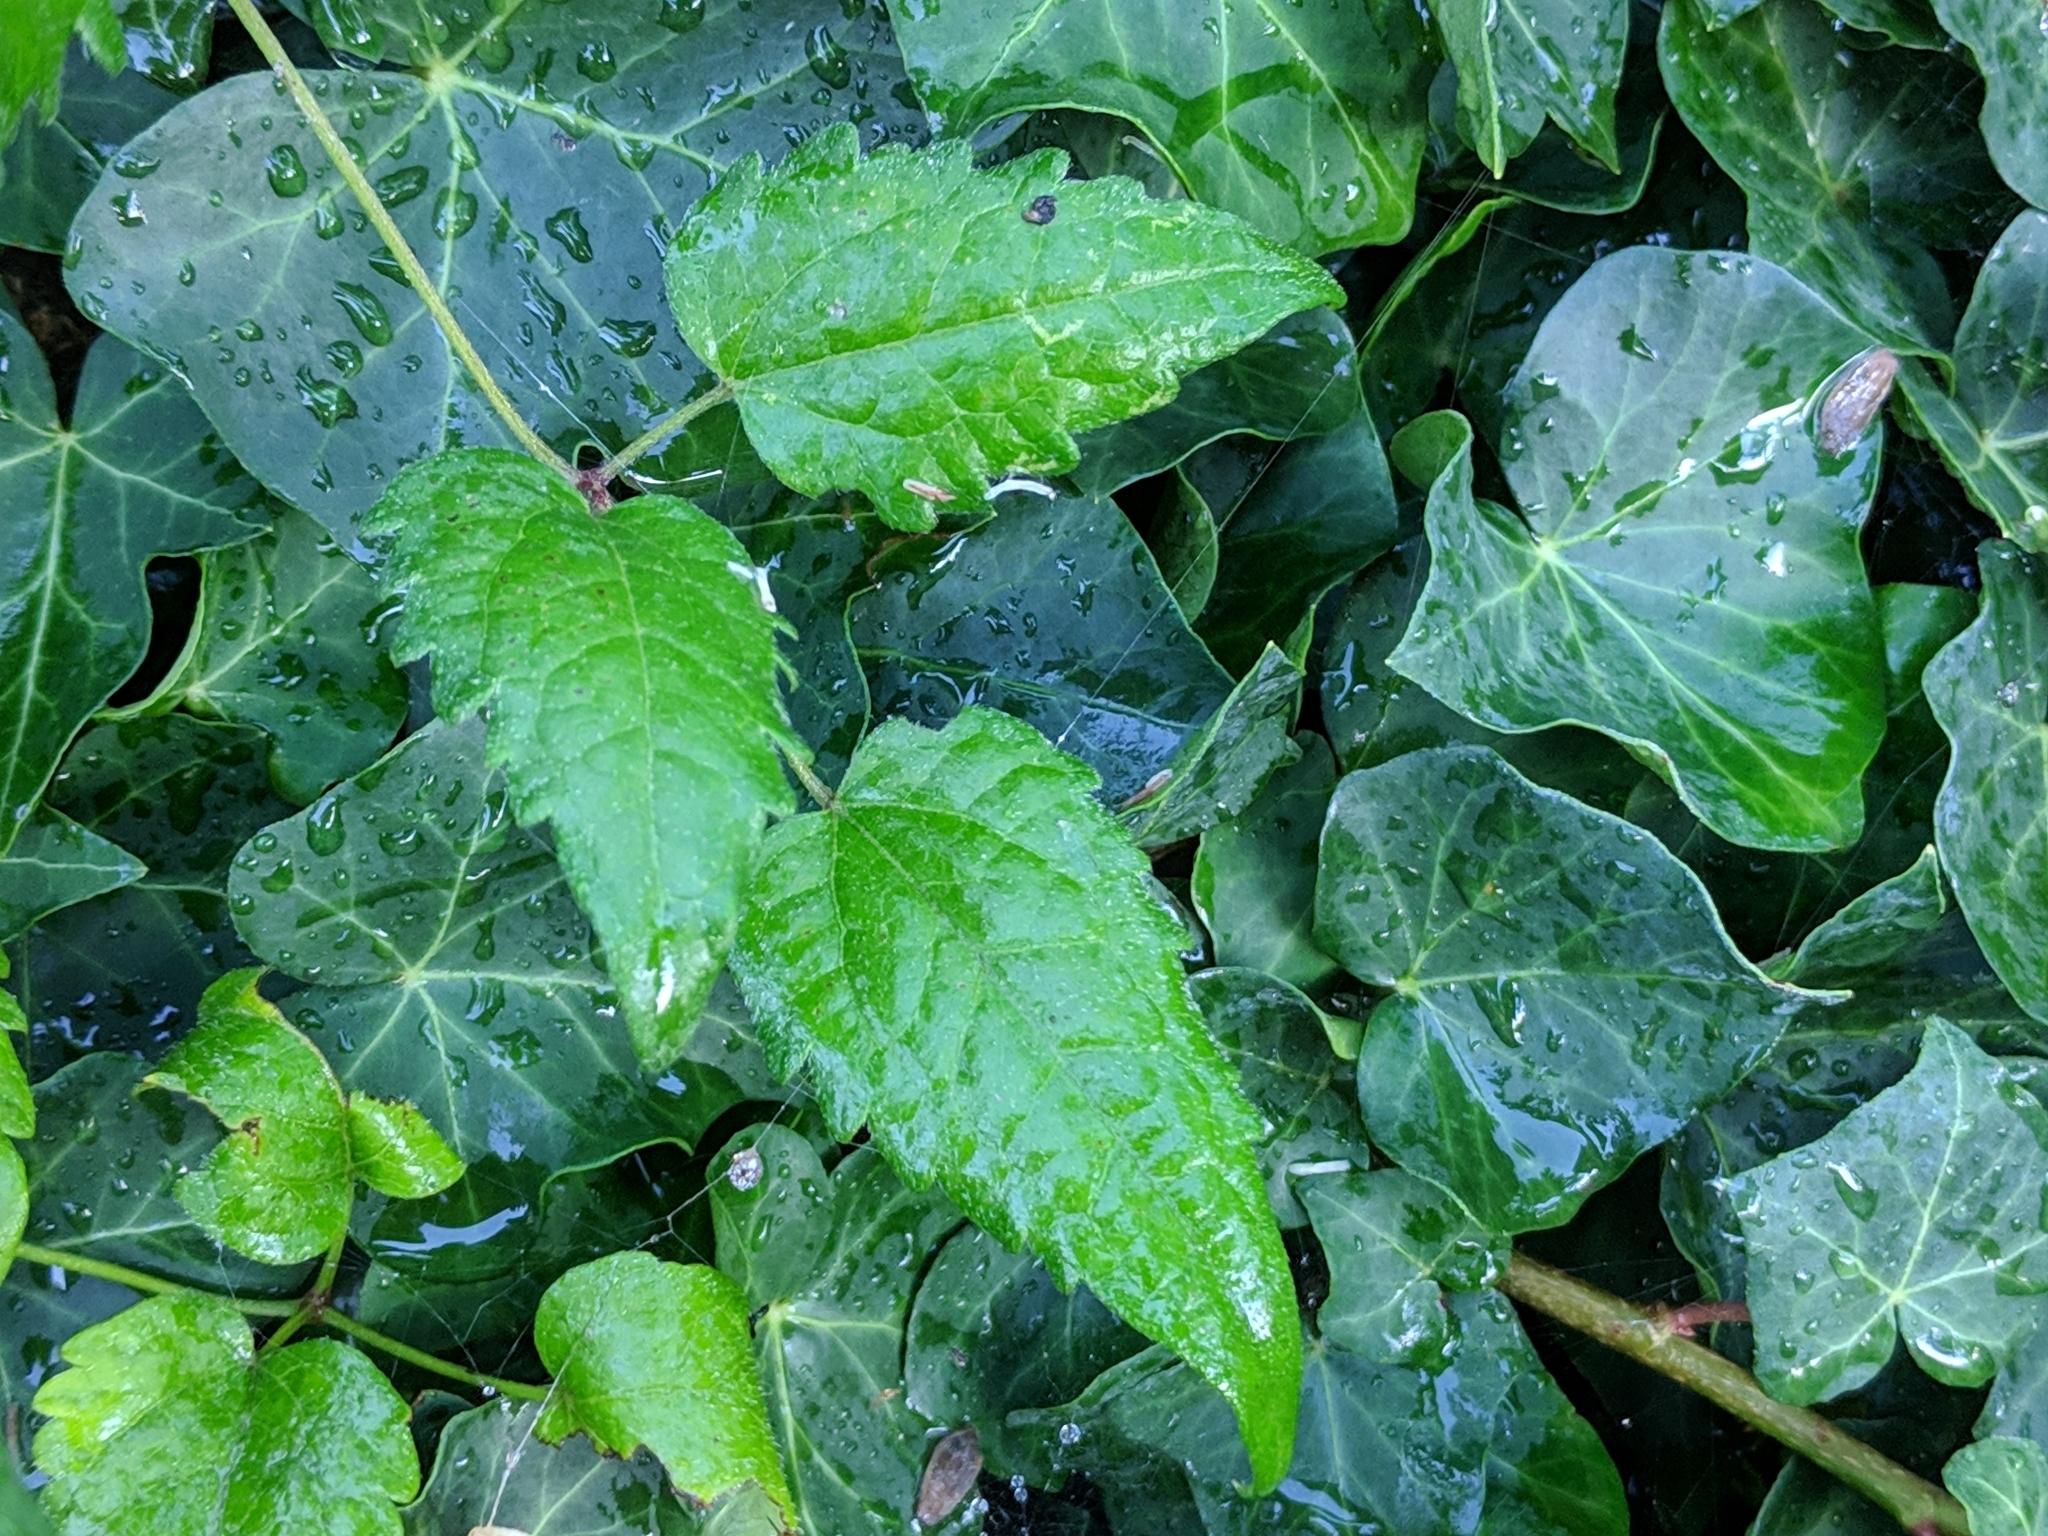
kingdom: Plantae
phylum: Tracheophyta
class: Magnoliopsida
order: Ranunculales
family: Ranunculaceae
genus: Clematis
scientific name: Clematis vitalba
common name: Evergreen clematis
